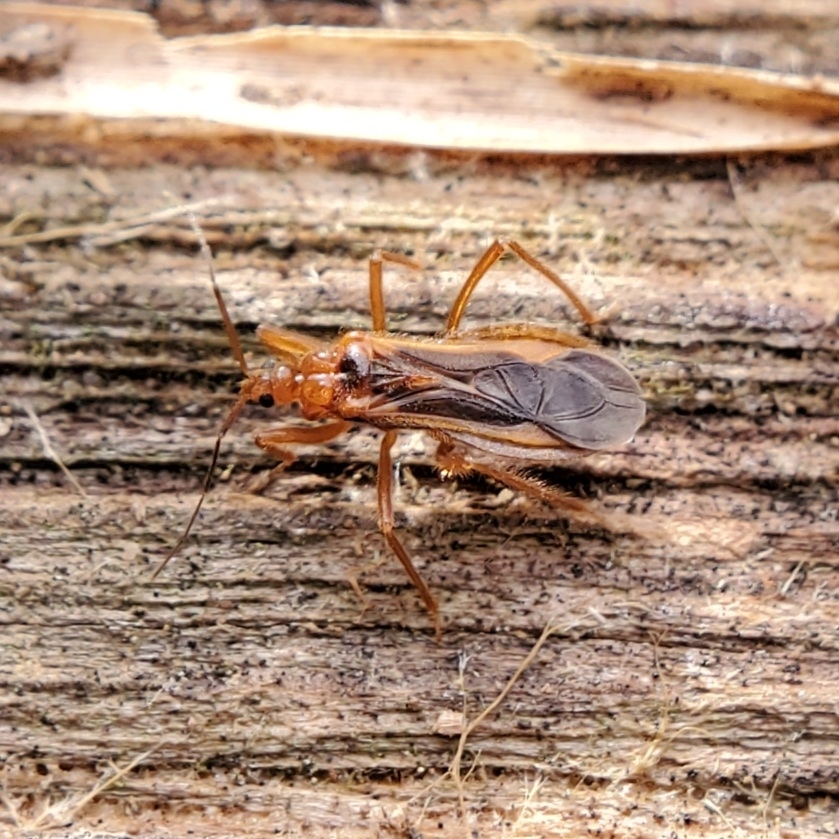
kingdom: Animalia
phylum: Arthropoda
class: Insecta
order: Hemiptera
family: Reduviidae
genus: Oncerotrachelus
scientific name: Oncerotrachelus acuminatus
